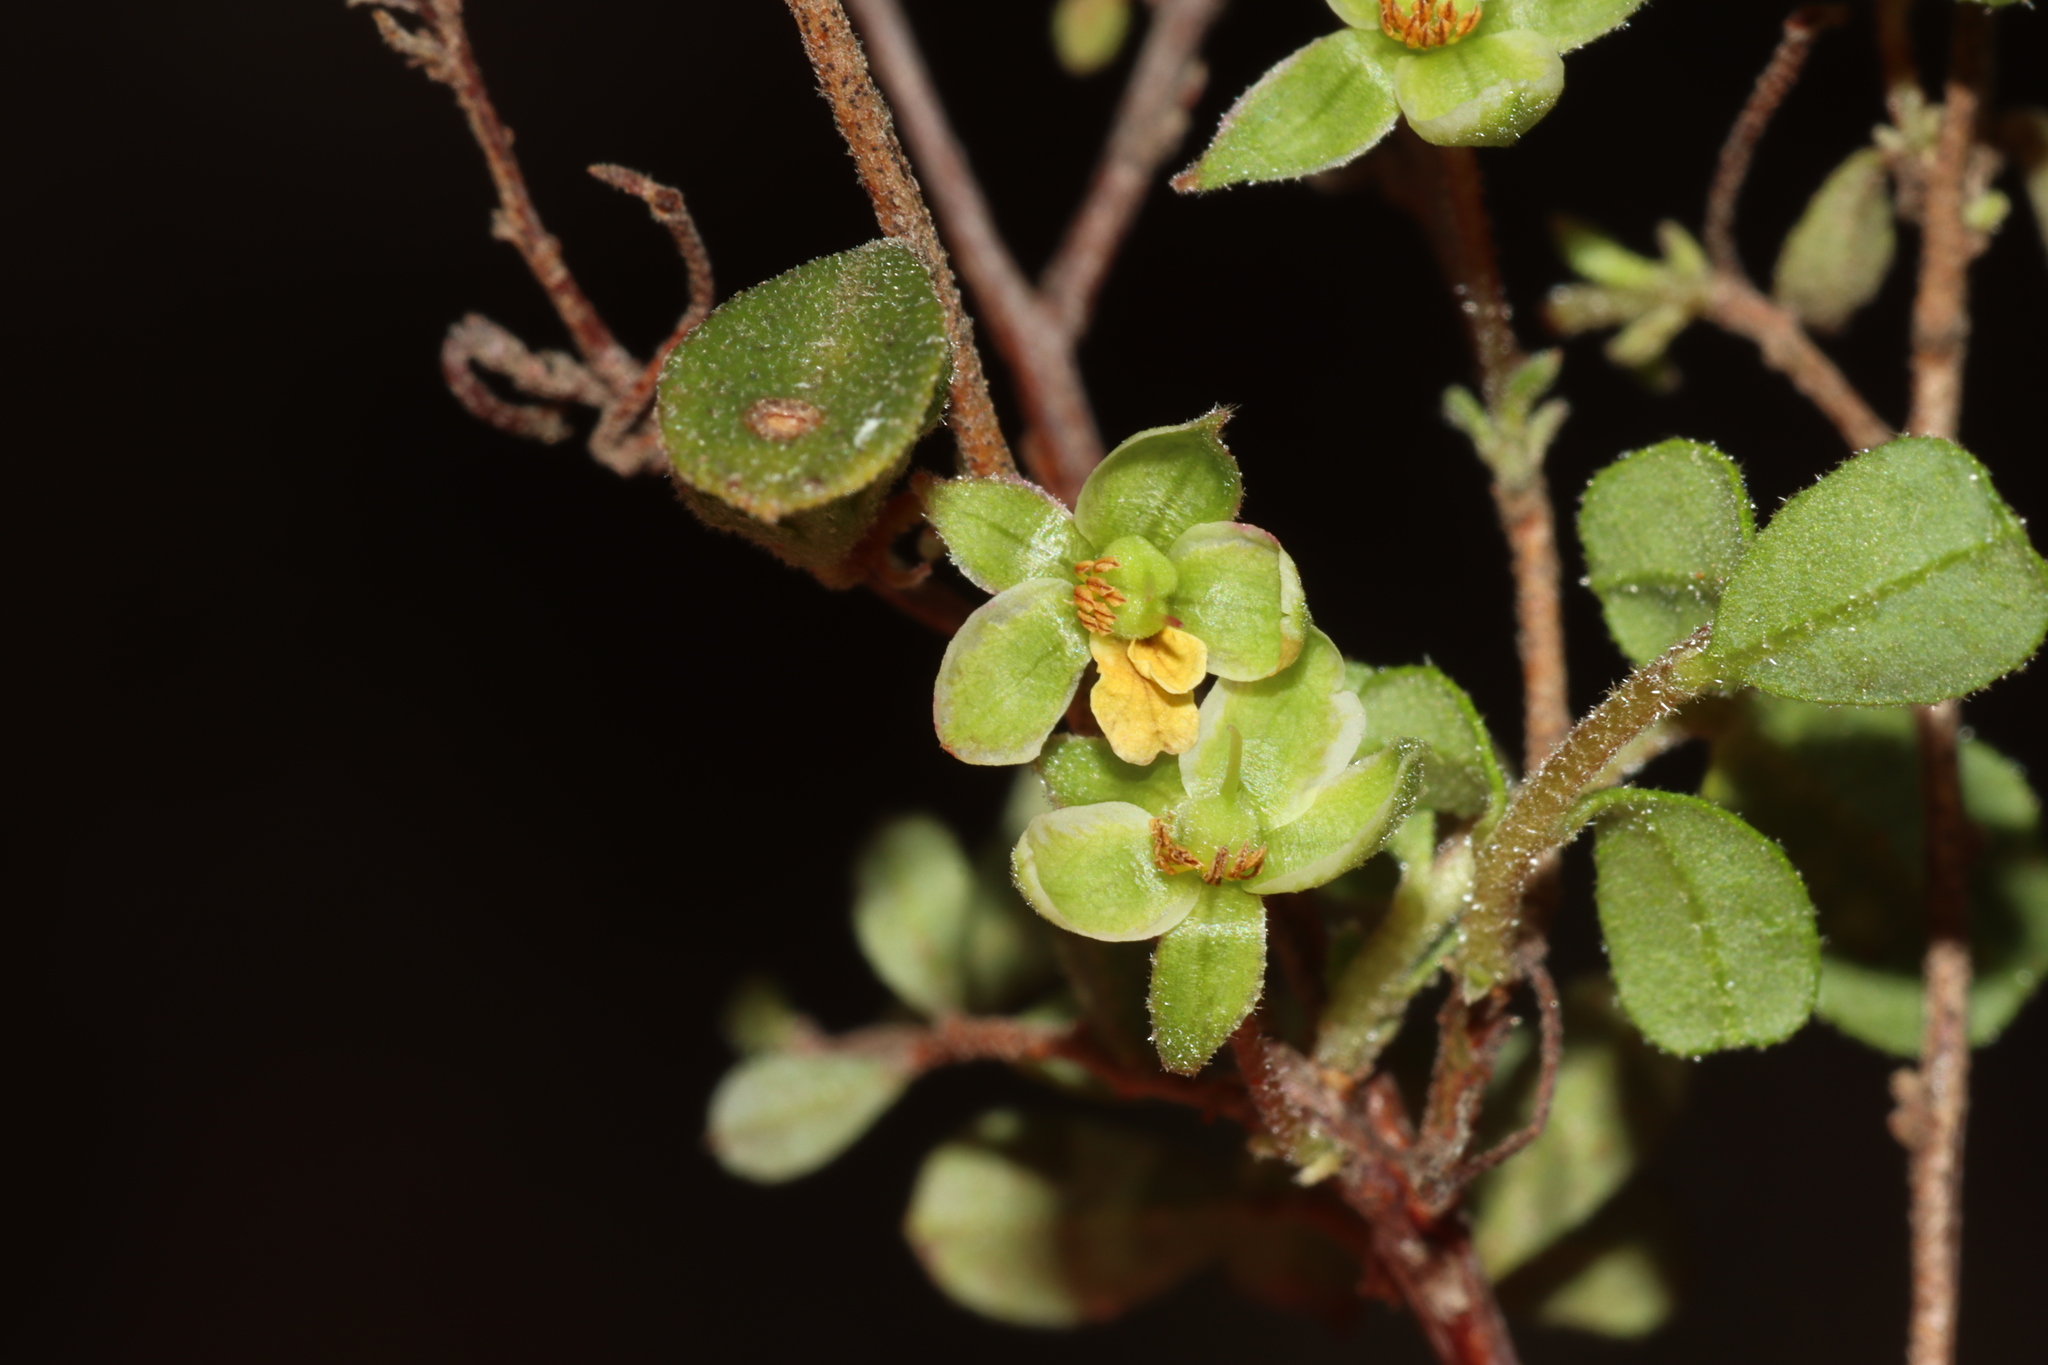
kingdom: Plantae
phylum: Tracheophyta
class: Magnoliopsida
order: Dilleniales
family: Dilleniaceae
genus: Hibbertia
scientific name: Hibbertia pallidiflora
